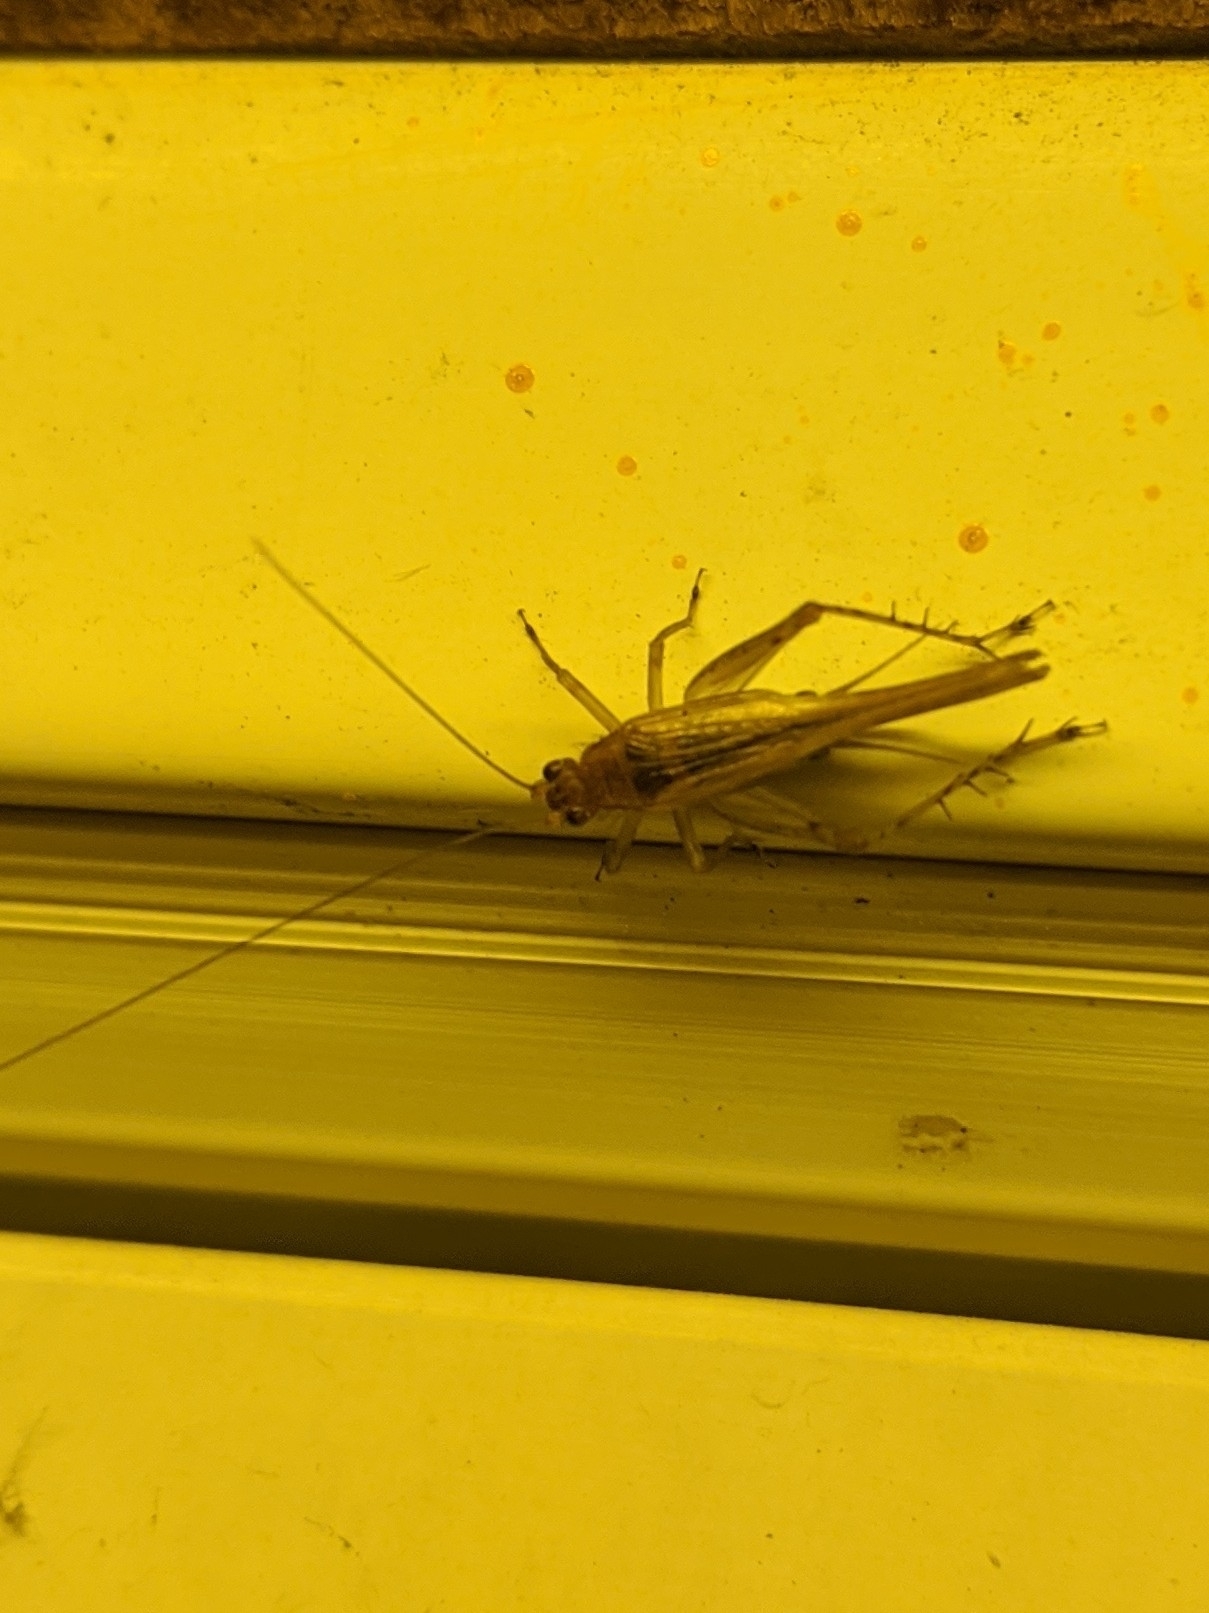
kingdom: Animalia
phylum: Arthropoda
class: Insecta
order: Orthoptera
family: Trigonidiidae
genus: Anaxipha
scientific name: Anaxipha exigua
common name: Say's bush cricket
